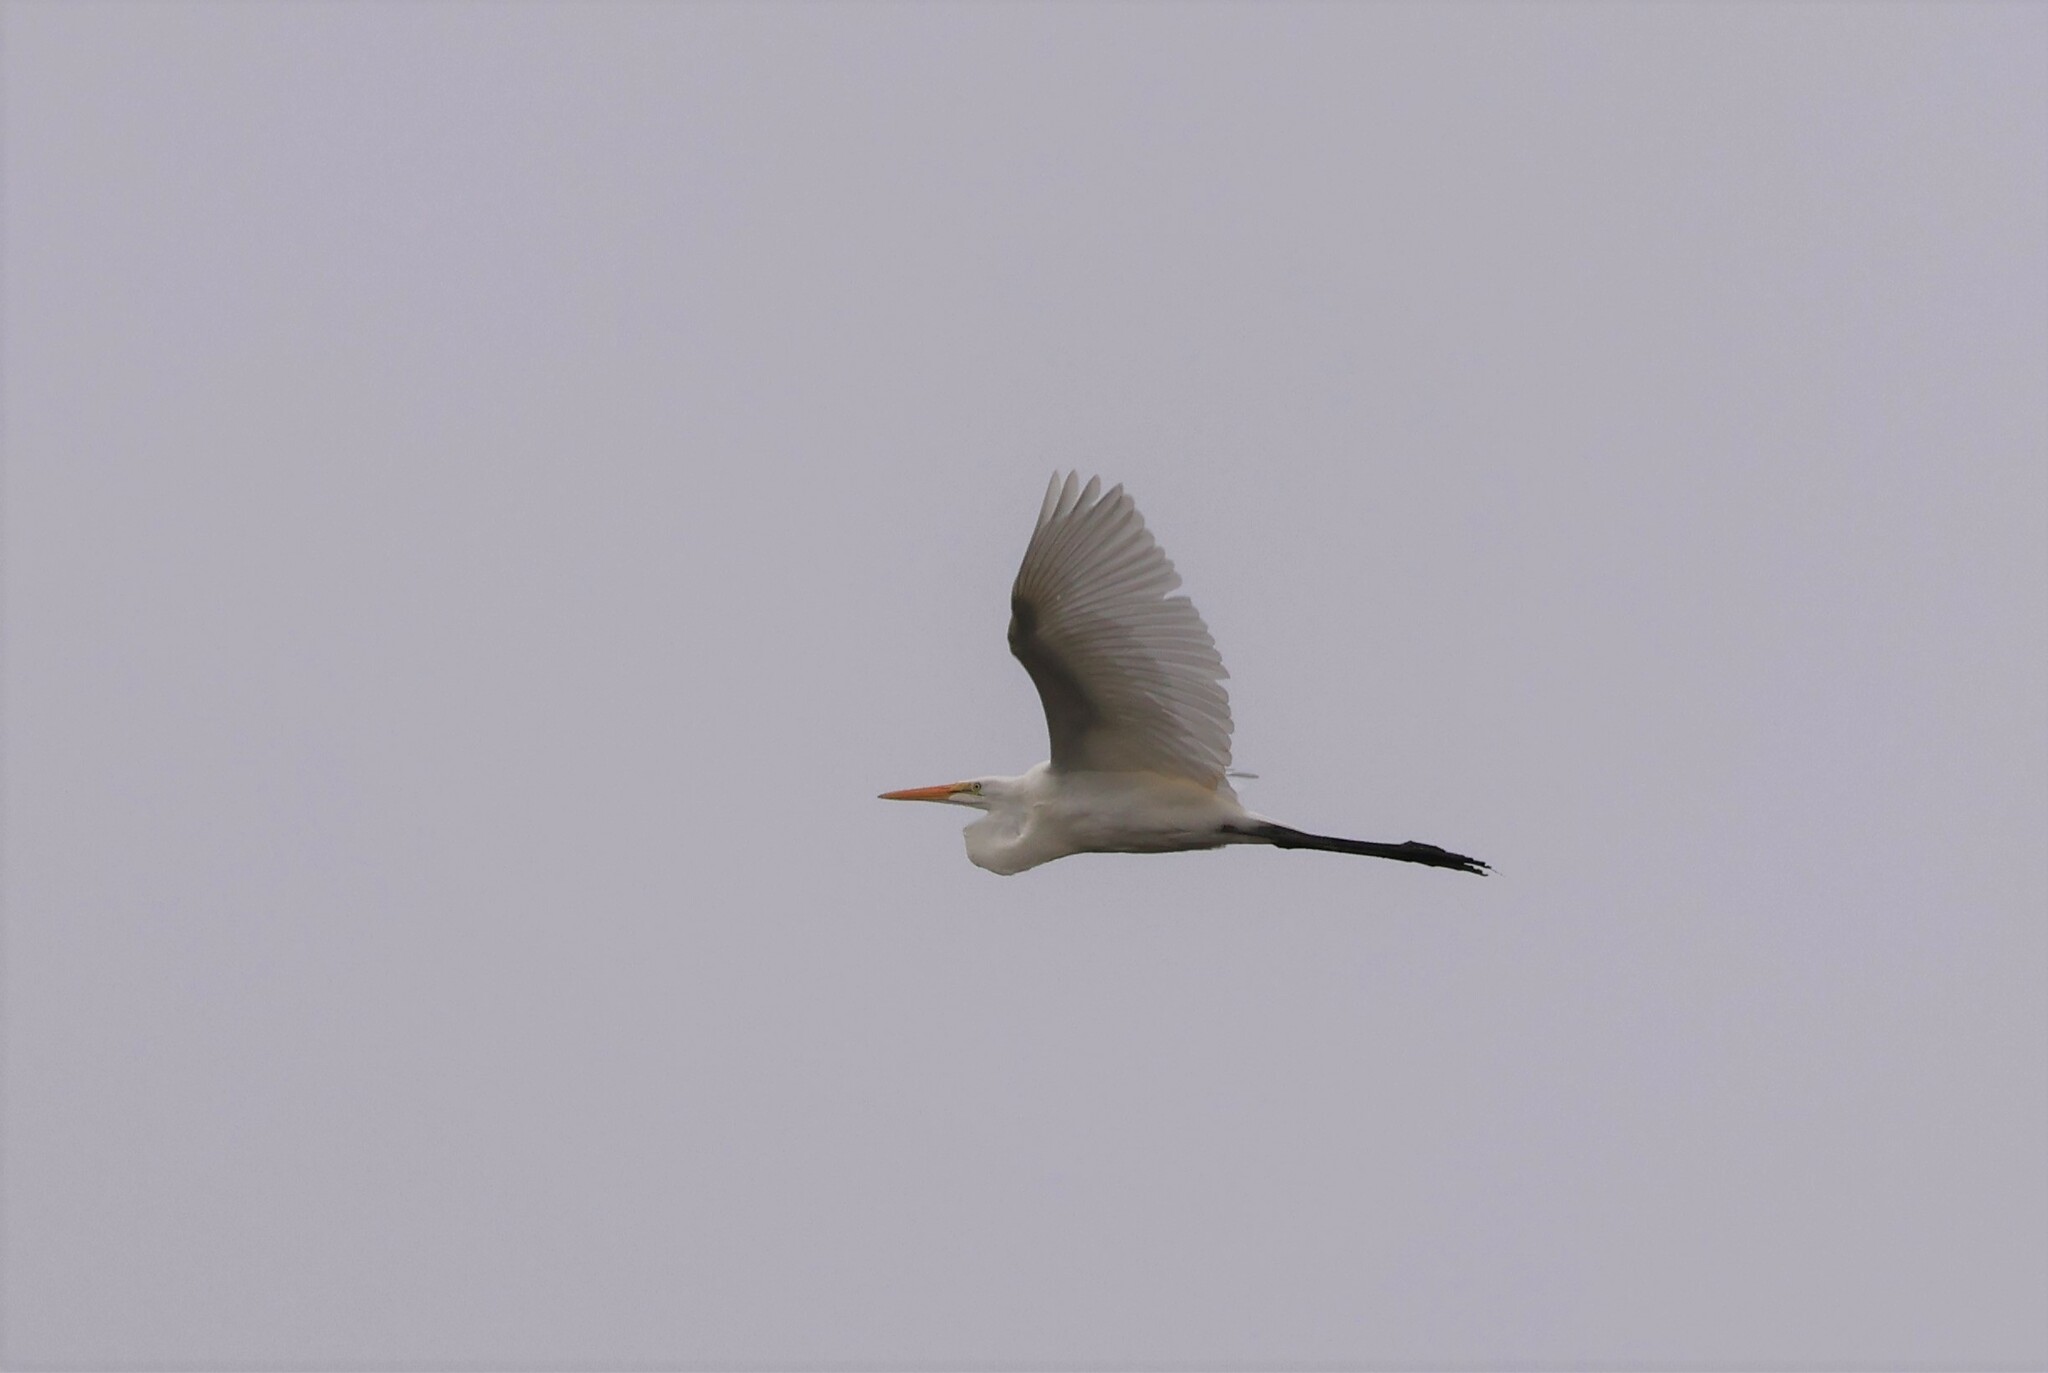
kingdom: Animalia
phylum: Chordata
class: Aves
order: Pelecaniformes
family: Ardeidae
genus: Ardea
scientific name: Ardea alba
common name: Great egret
